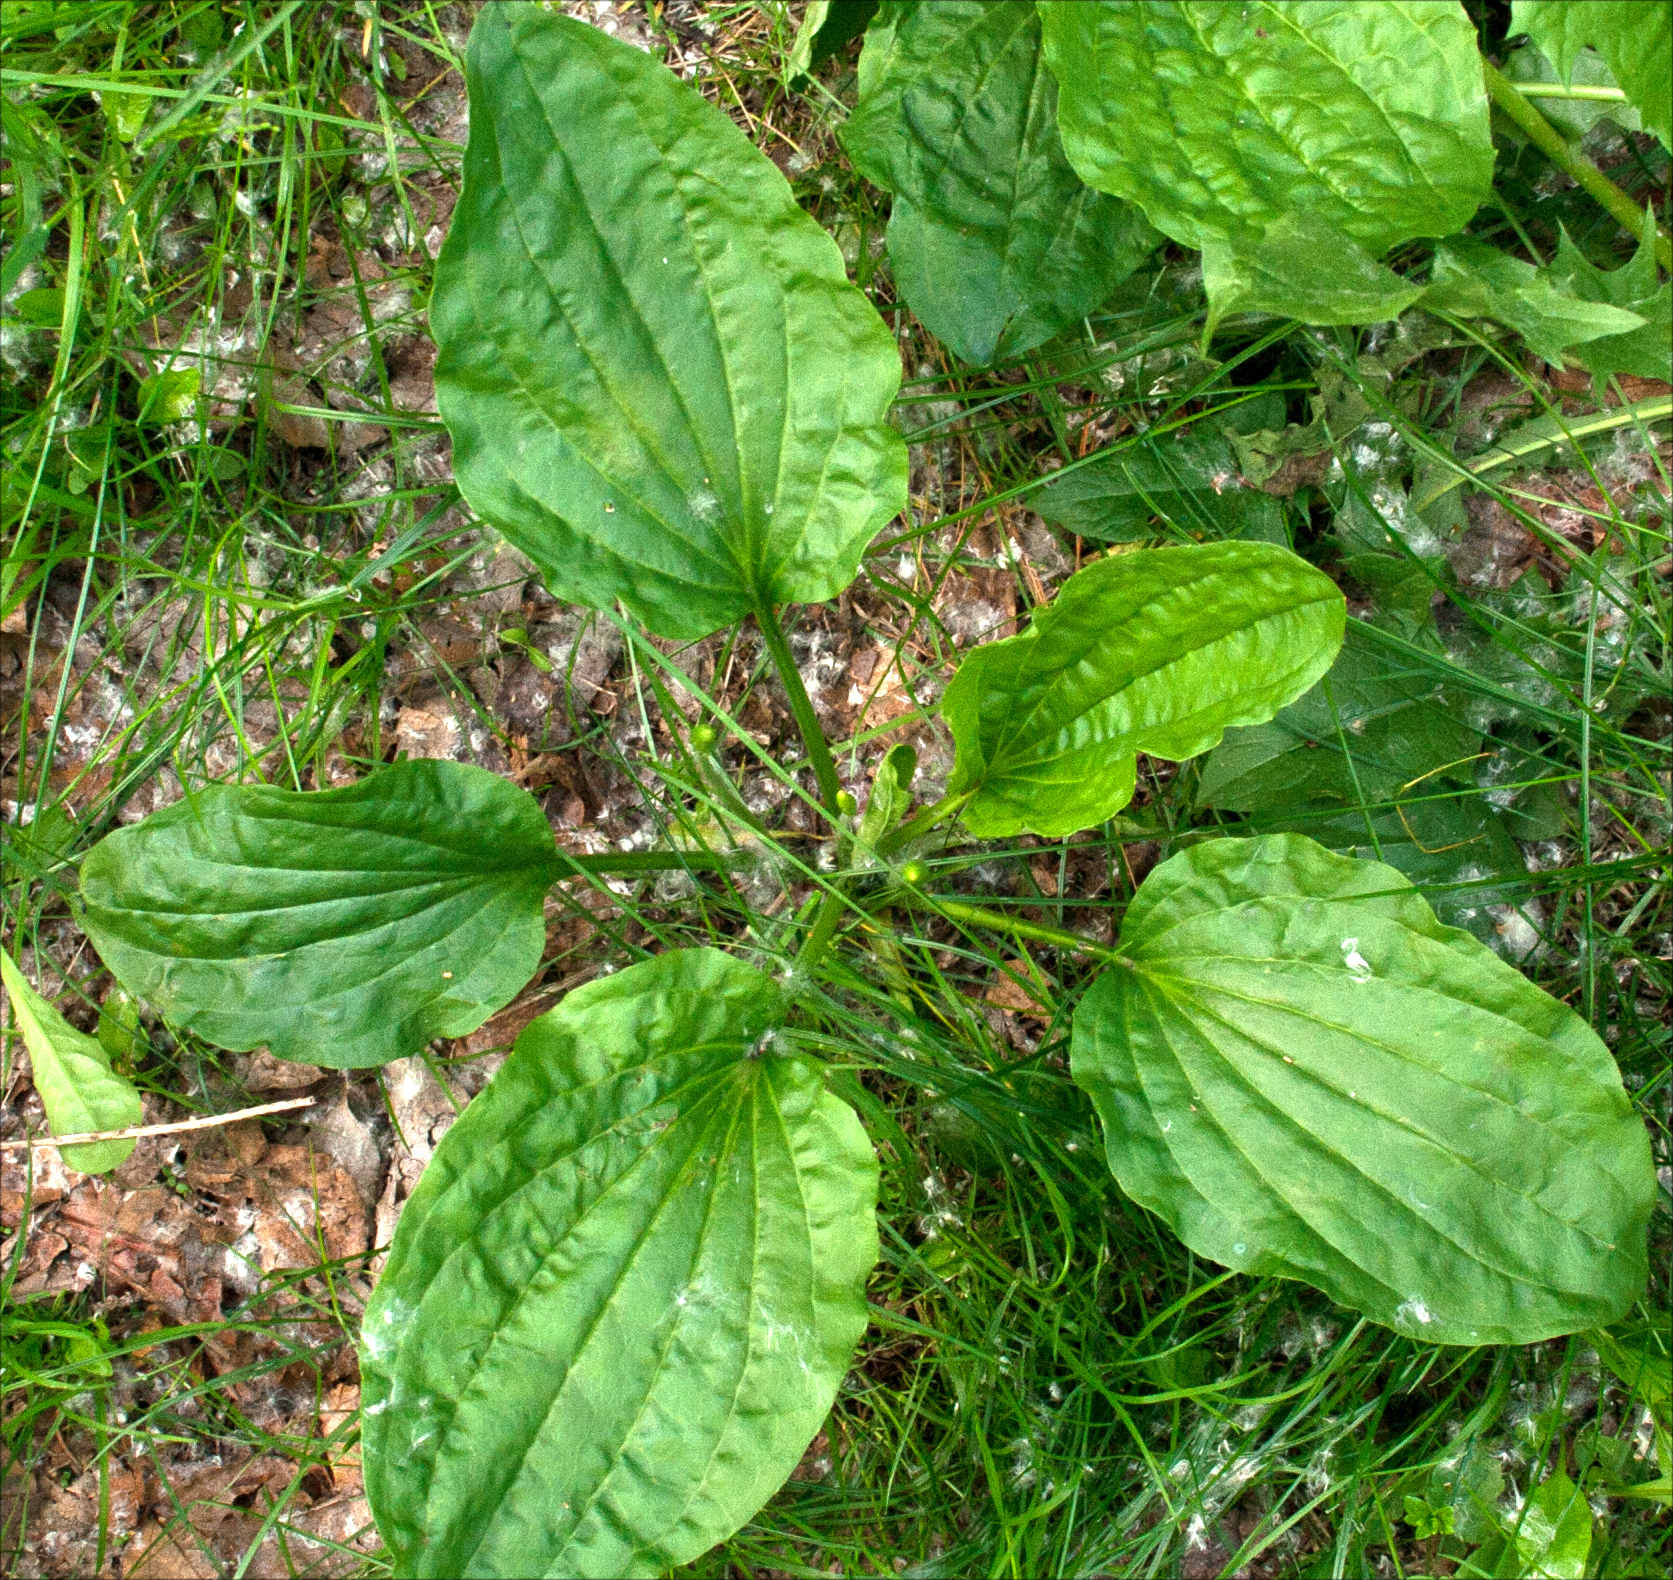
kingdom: Plantae
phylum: Tracheophyta
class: Magnoliopsida
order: Lamiales
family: Plantaginaceae
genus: Plantago
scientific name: Plantago major
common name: Common plantain
